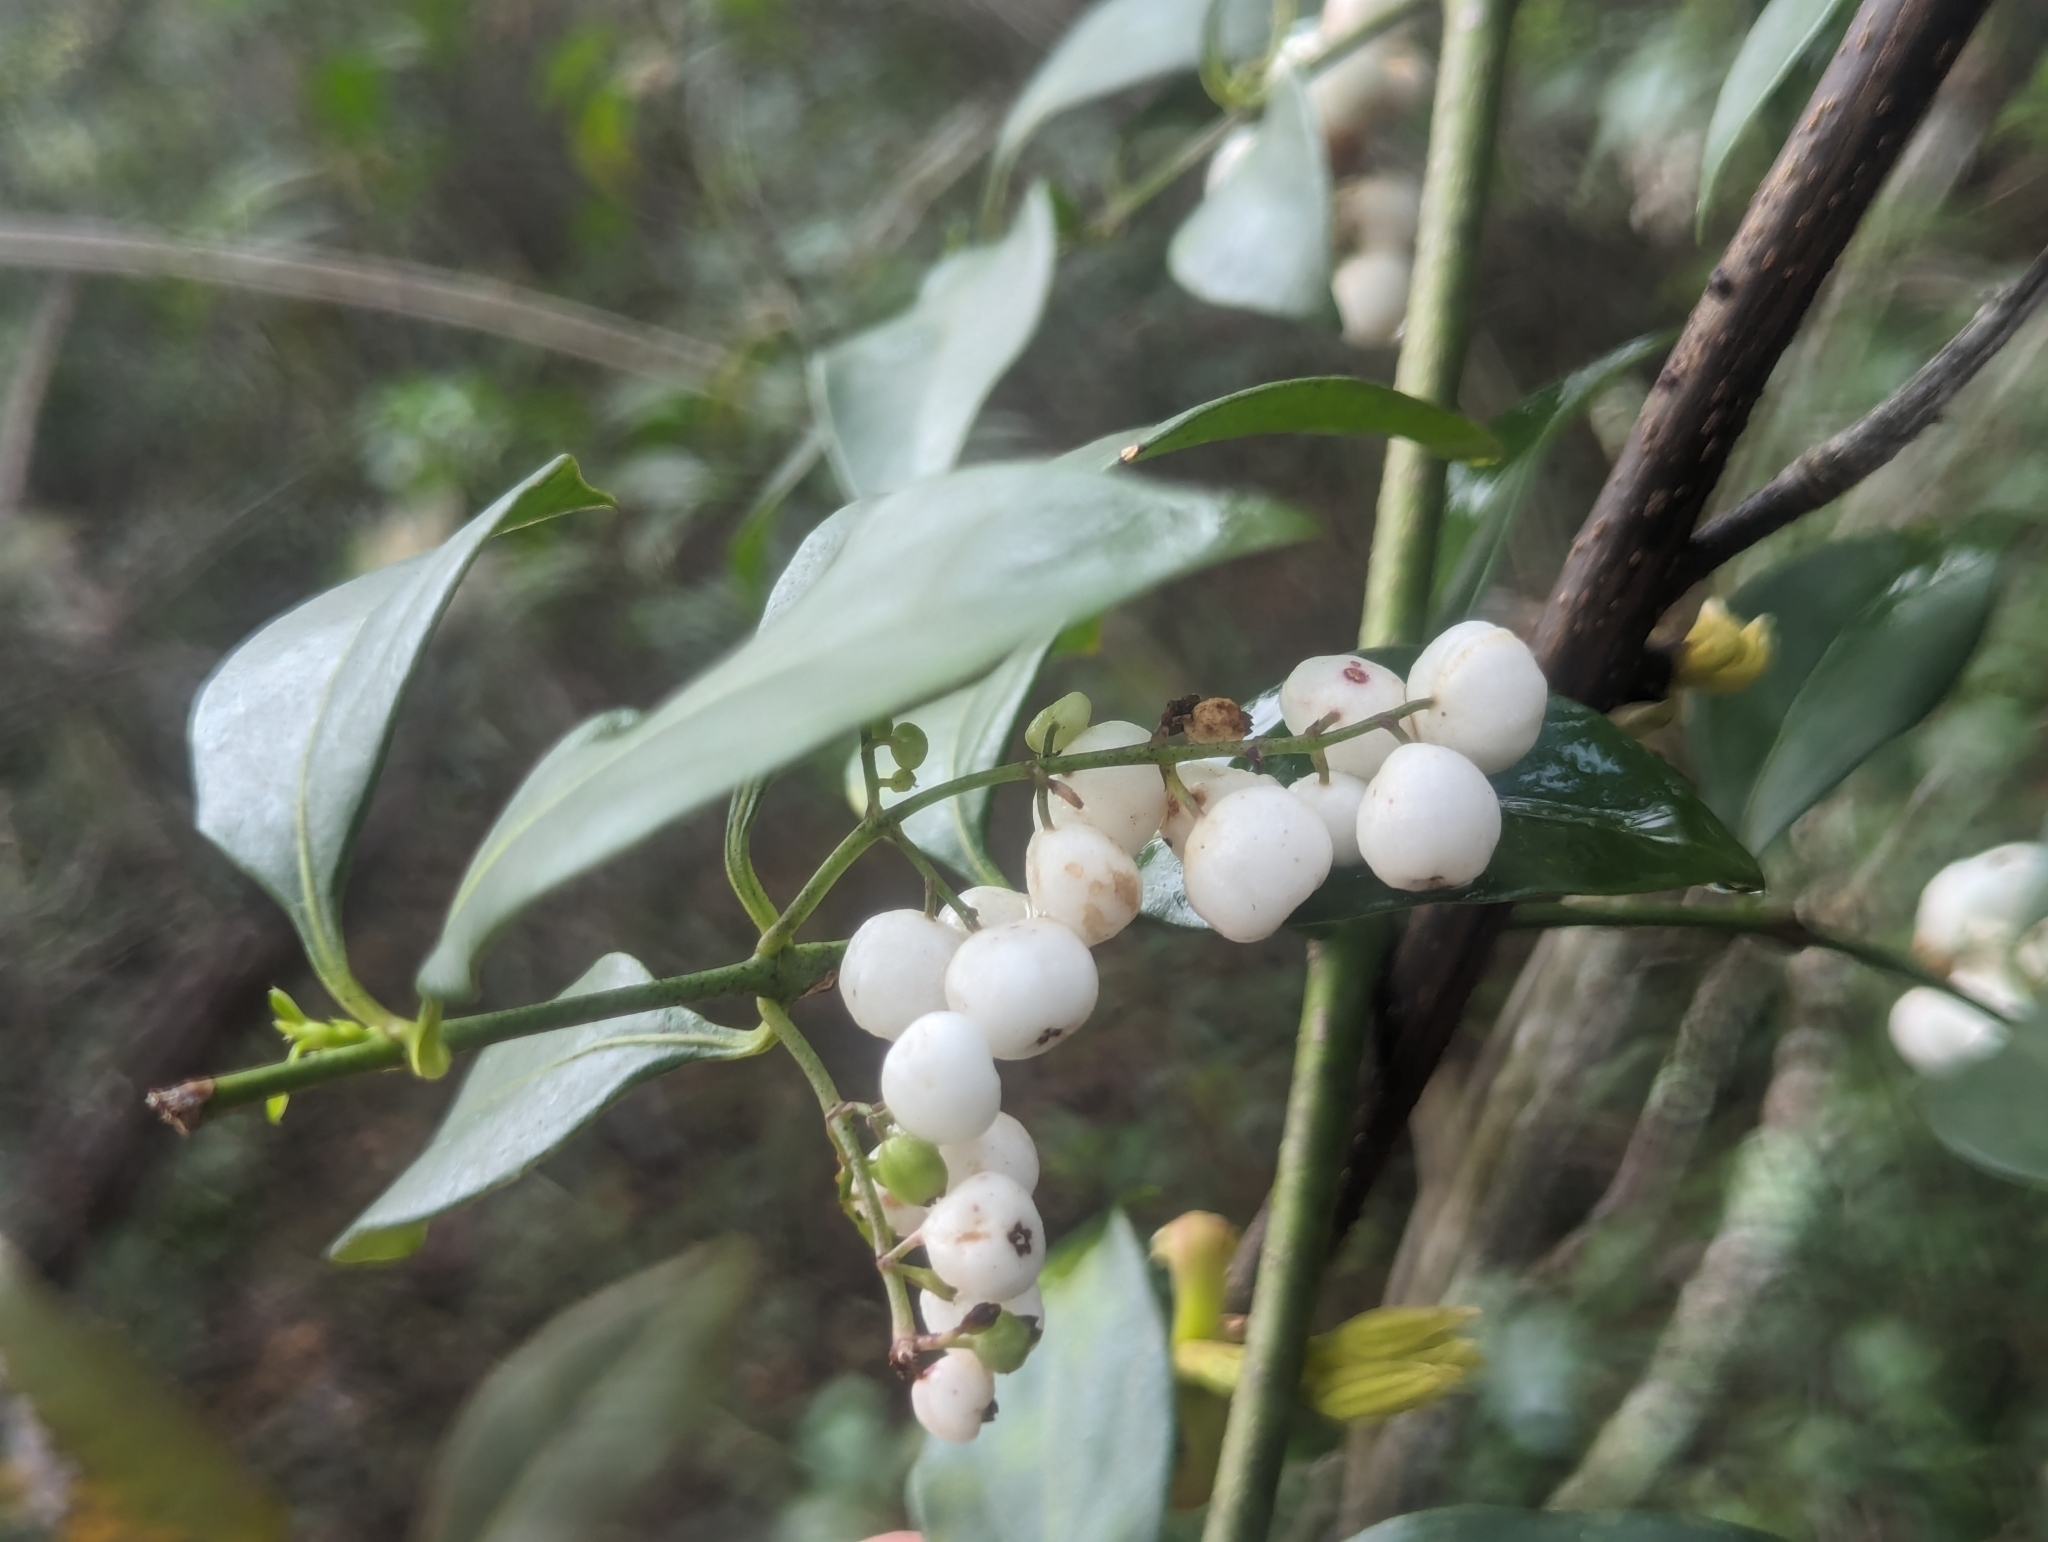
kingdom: Plantae
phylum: Tracheophyta
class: Magnoliopsida
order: Gentianales
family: Rubiaceae
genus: Chiococca
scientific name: Chiococca alba
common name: Snowberry
